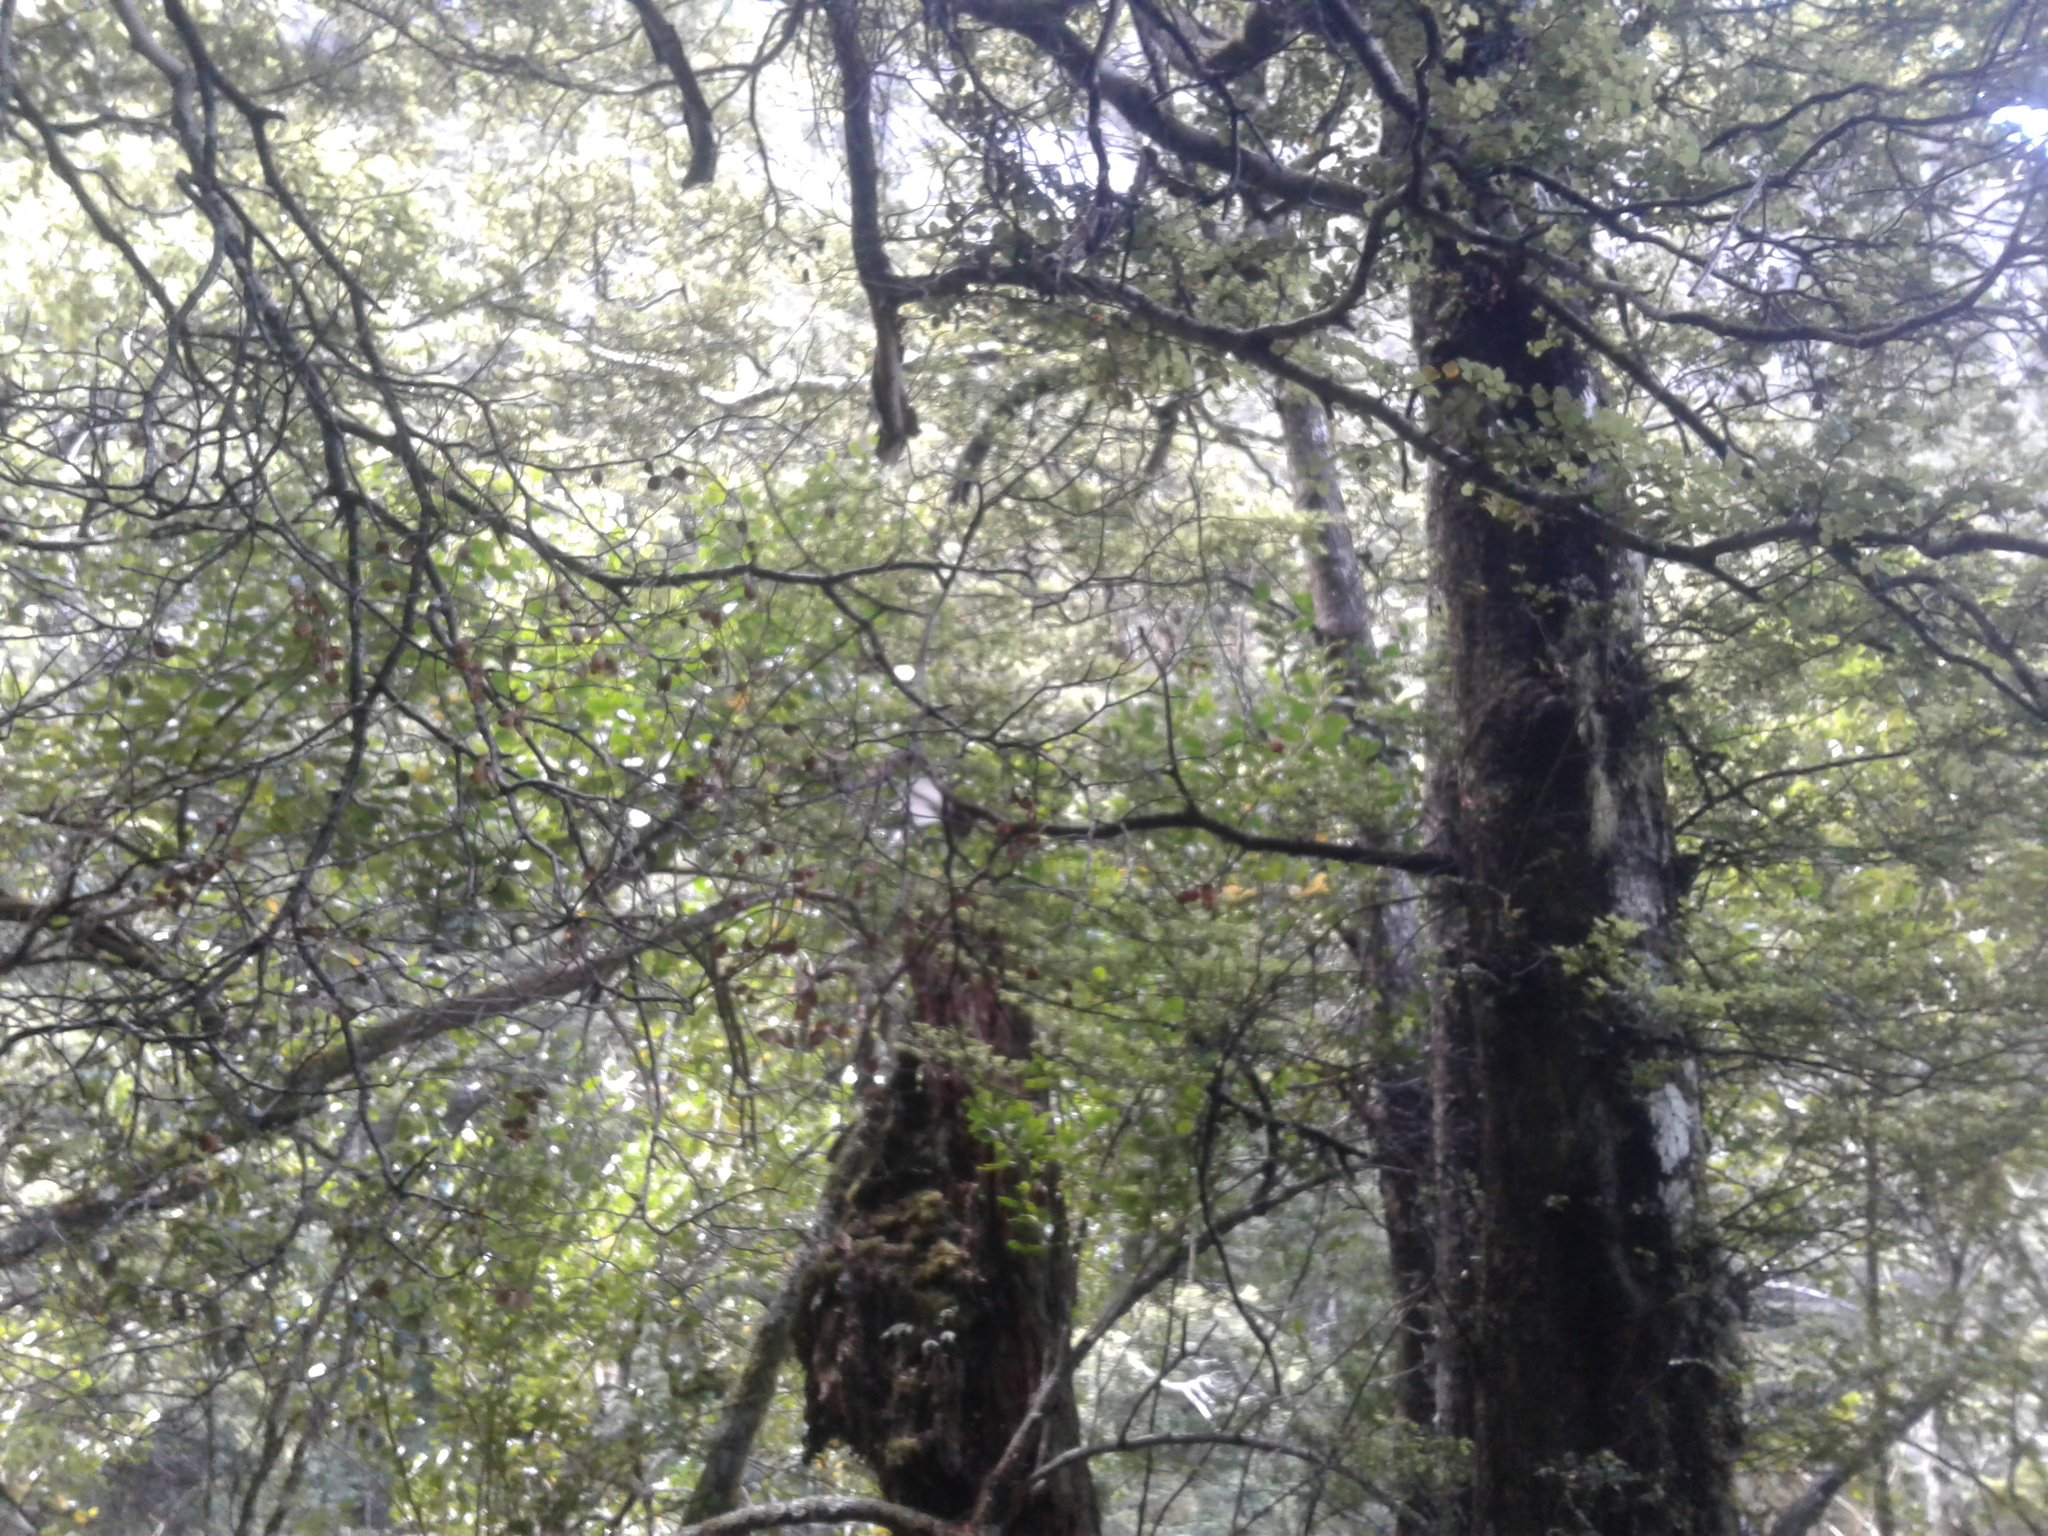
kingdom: Animalia
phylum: Chordata
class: Aves
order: Passeriformes
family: Rhipiduridae
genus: Rhipidura
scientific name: Rhipidura fuliginosa
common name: New zealand fantail
